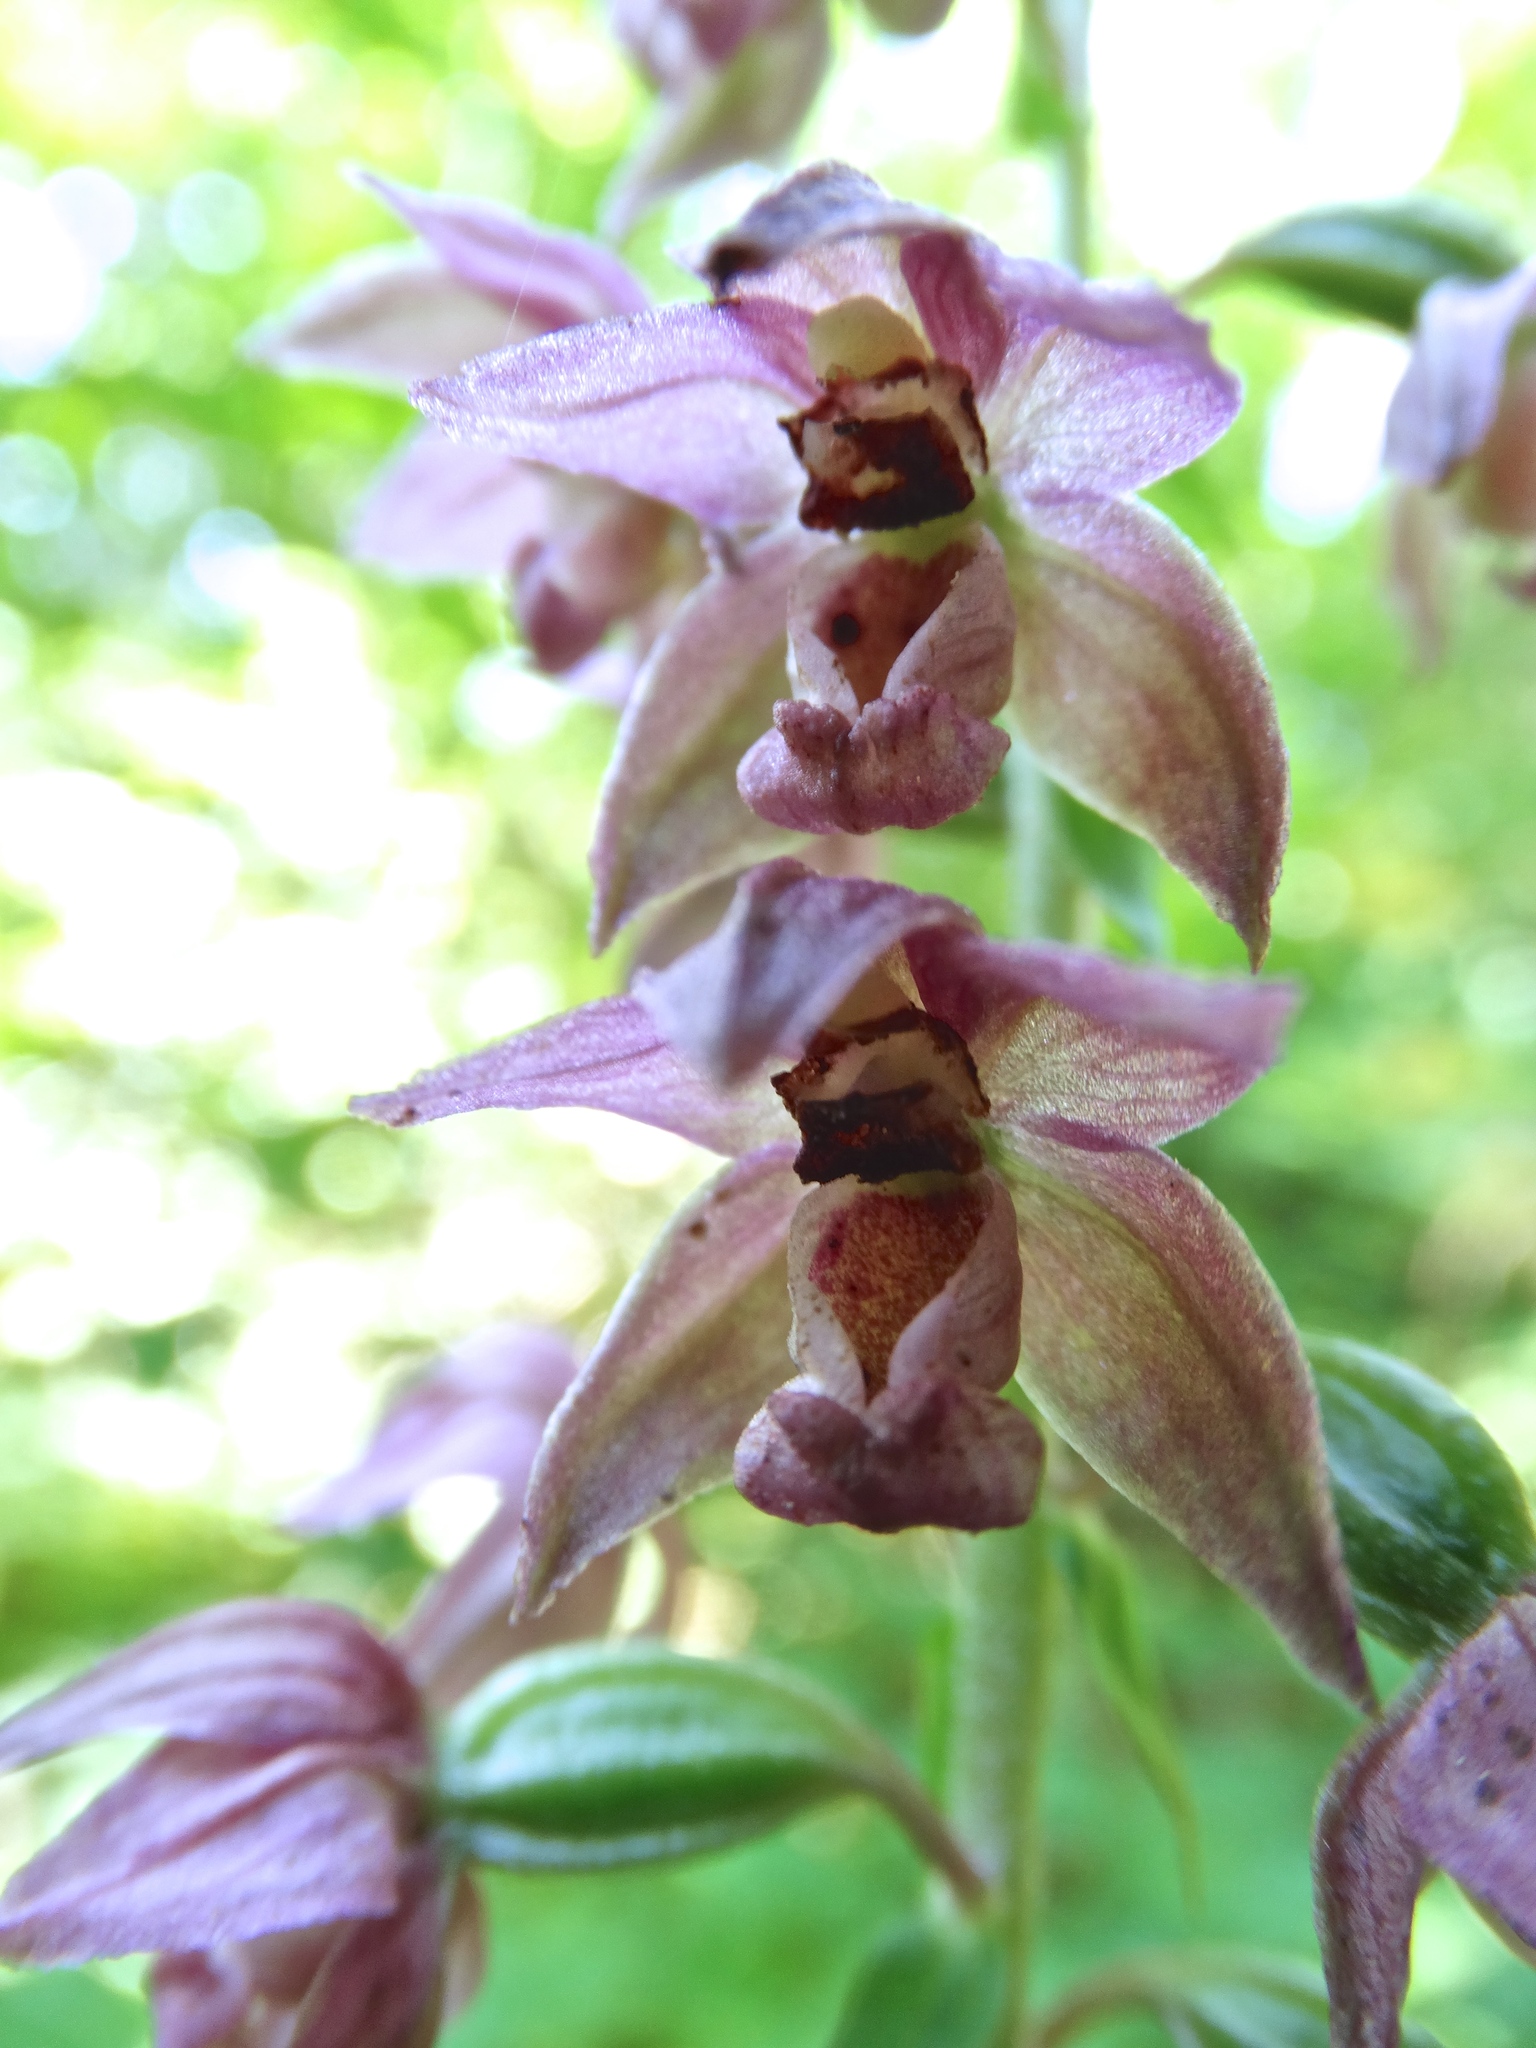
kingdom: Plantae
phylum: Tracheophyta
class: Liliopsida
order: Asparagales
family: Orchidaceae
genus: Epipactis
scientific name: Epipactis helleborine
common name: Broad-leaved helleborine
